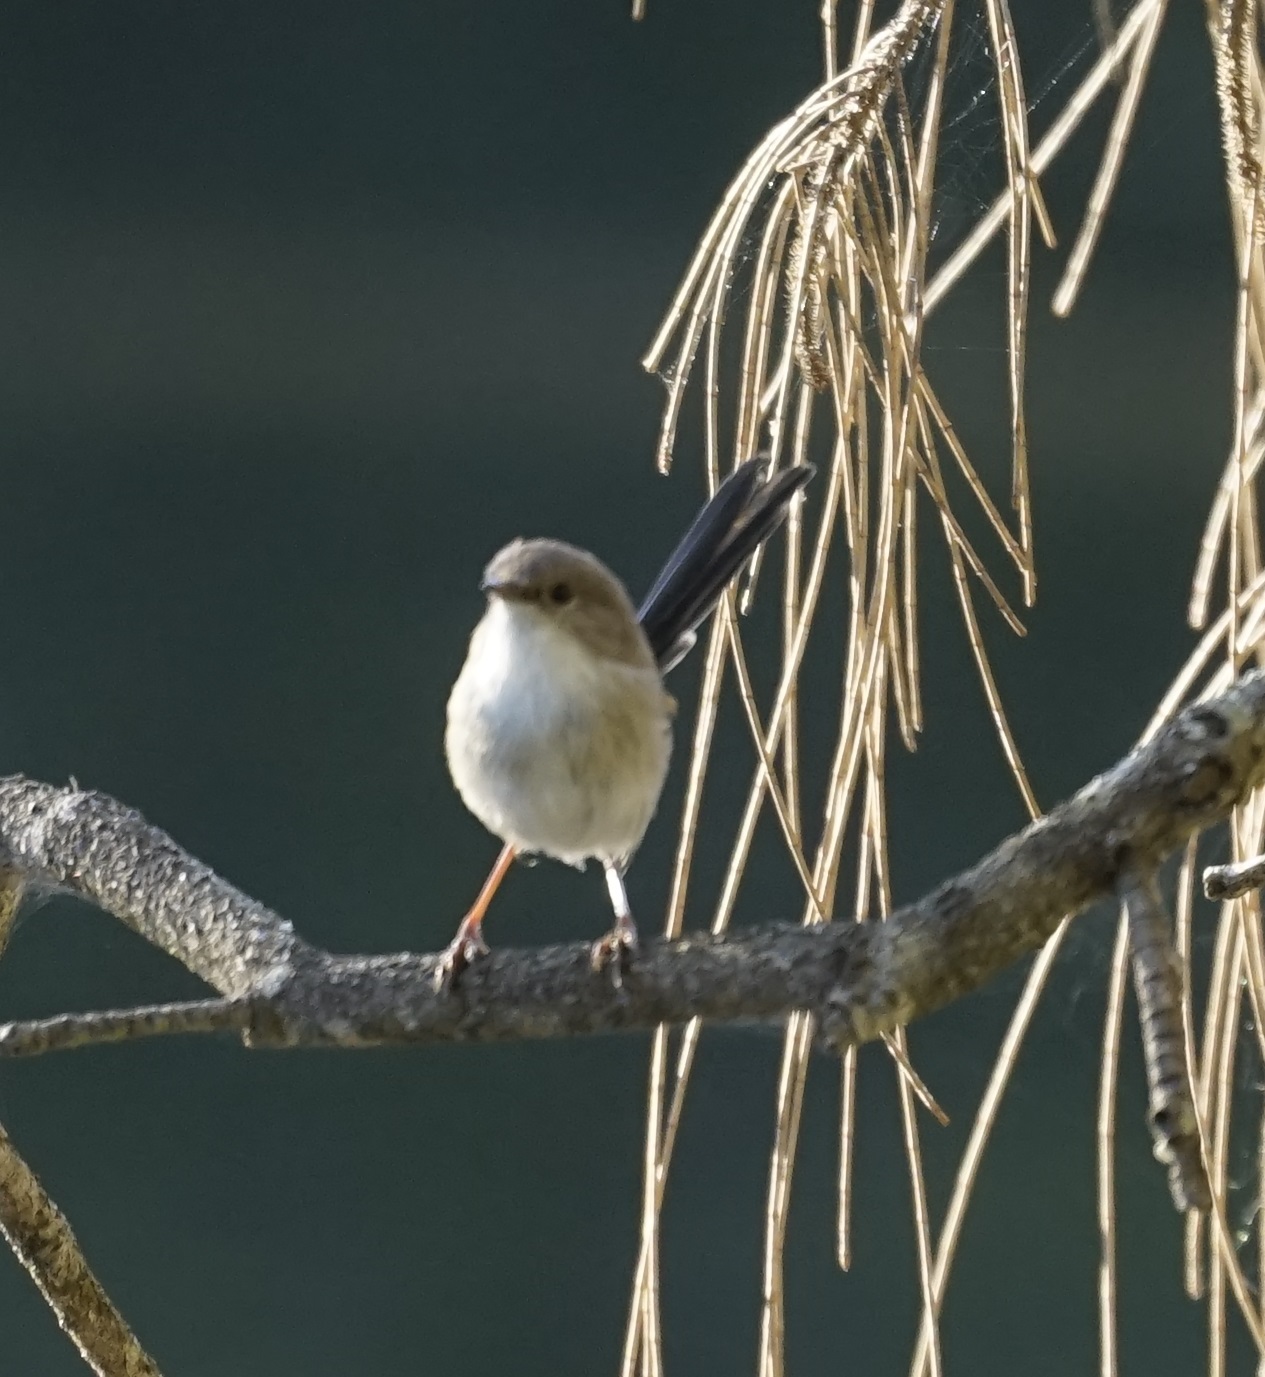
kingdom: Animalia
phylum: Chordata
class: Aves
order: Passeriformes
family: Maluridae
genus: Malurus
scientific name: Malurus cyaneus
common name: Superb fairywren
